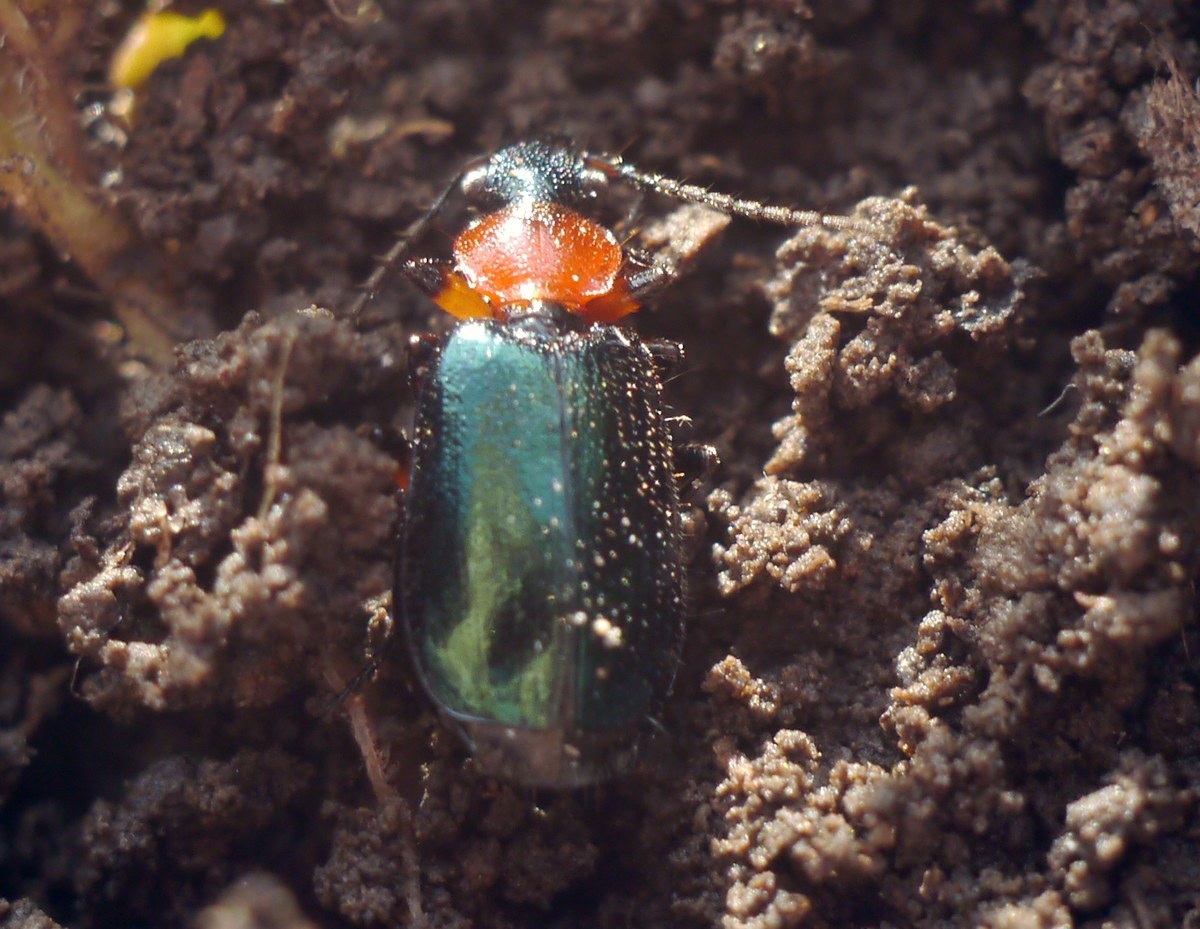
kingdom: Animalia
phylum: Arthropoda
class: Insecta
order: Coleoptera
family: Carabidae
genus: Lebia
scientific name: Lebia cyanocephala
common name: Blue plunderer
